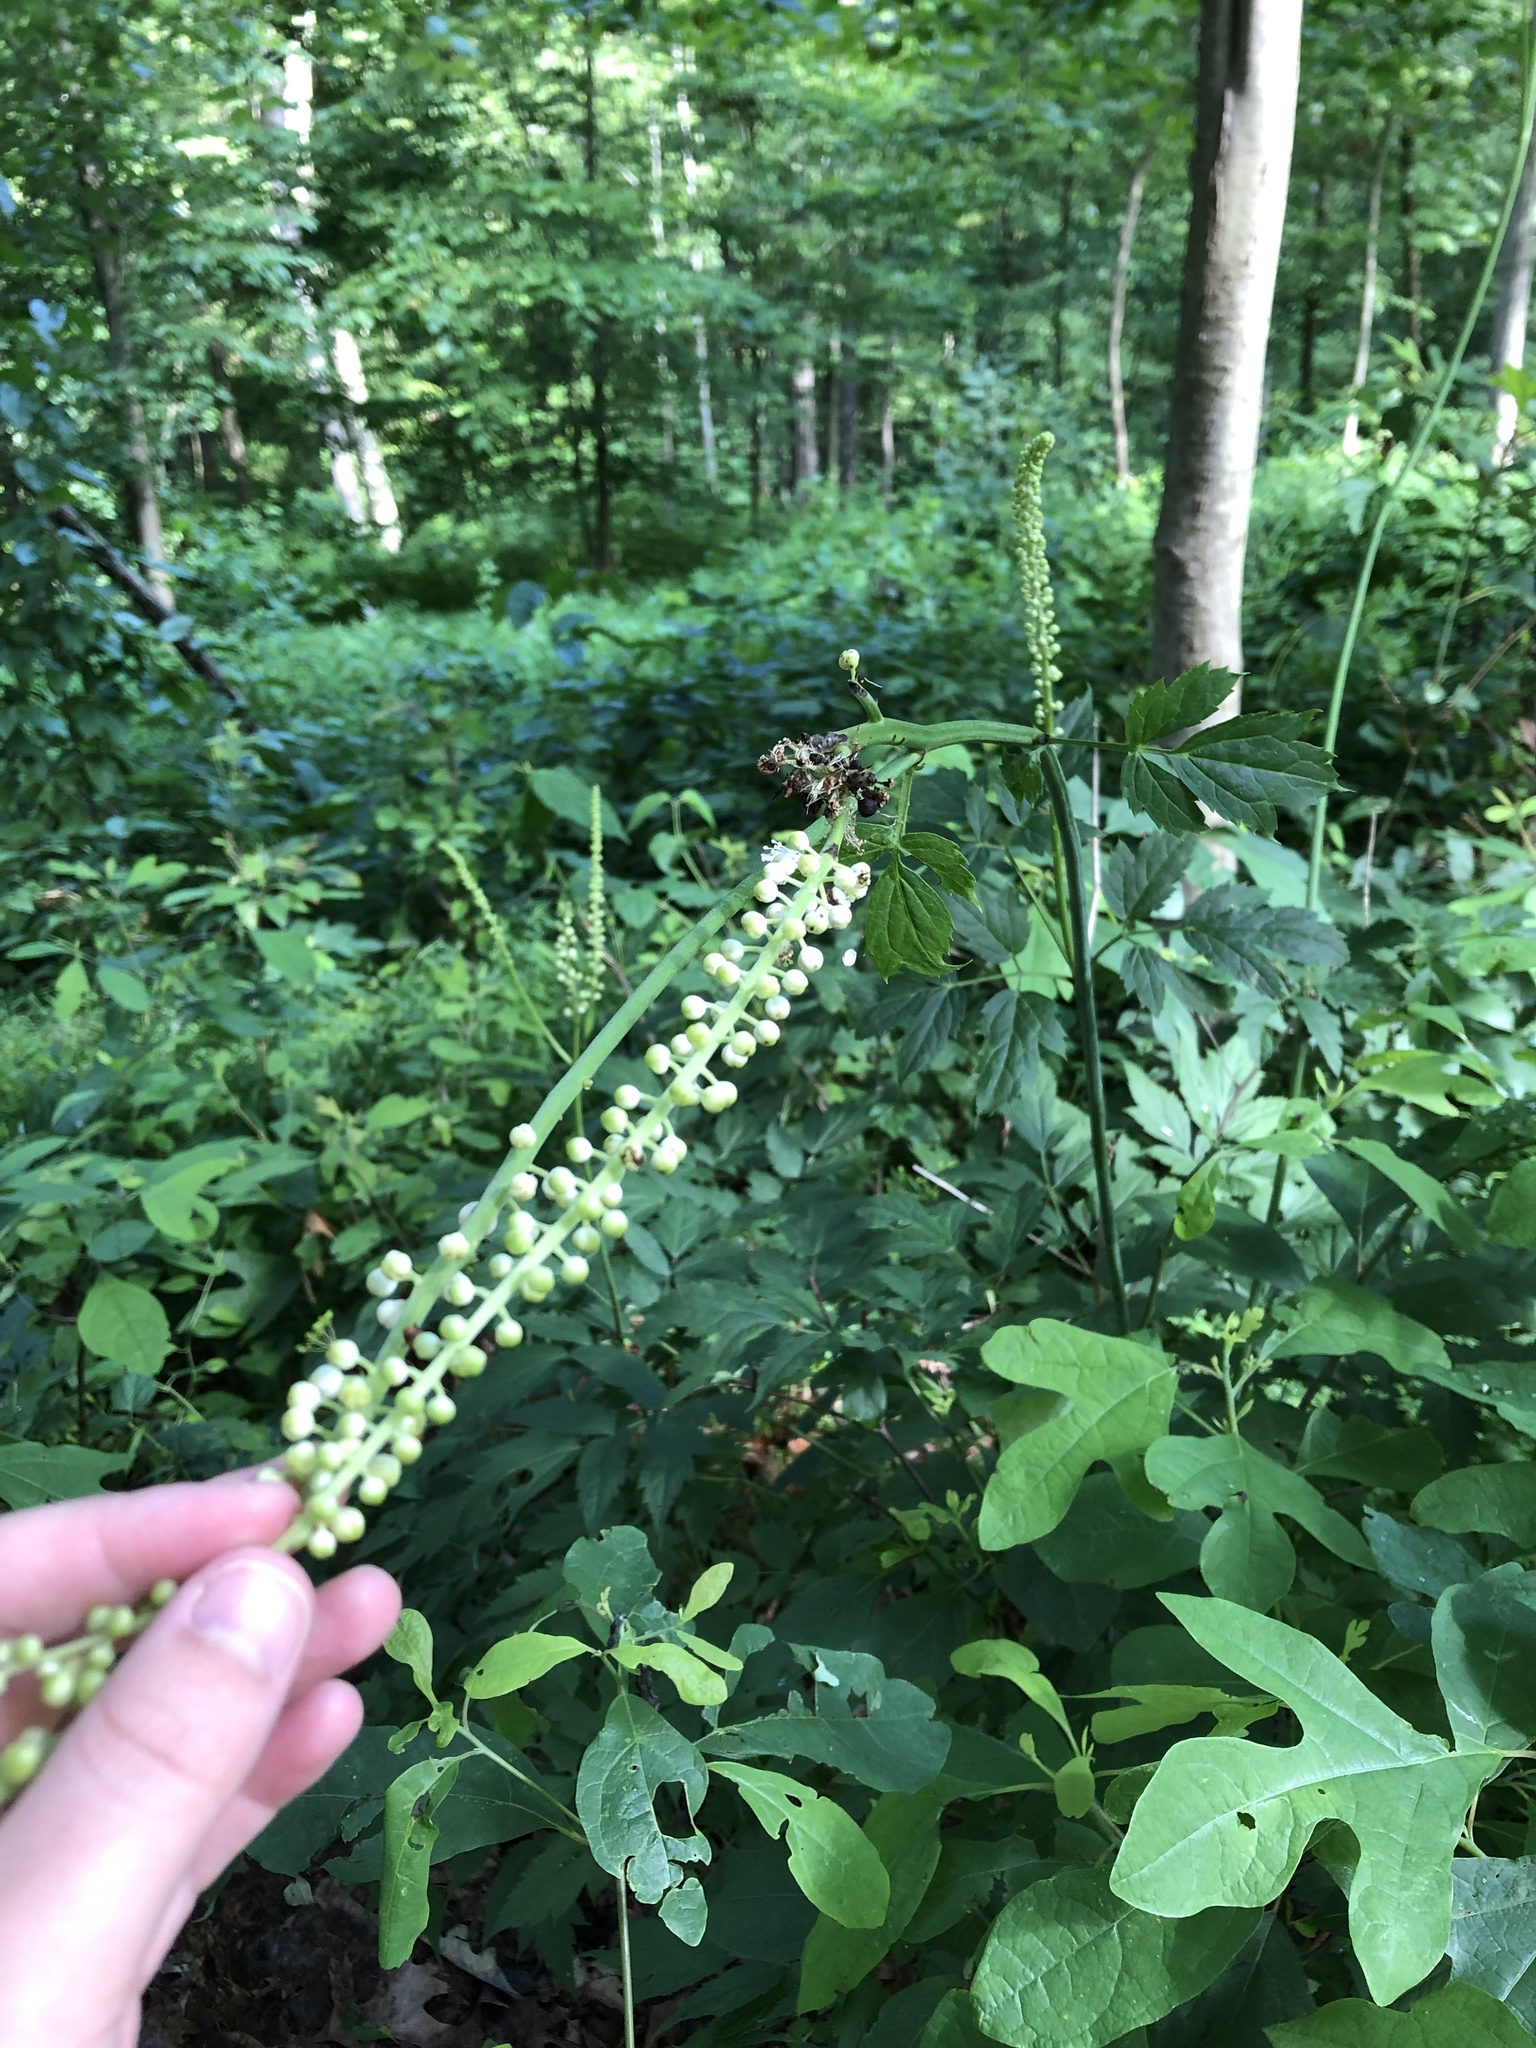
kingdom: Plantae
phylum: Tracheophyta
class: Magnoliopsida
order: Ranunculales
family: Ranunculaceae
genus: Actaea
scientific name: Actaea racemosa
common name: Black cohosh
